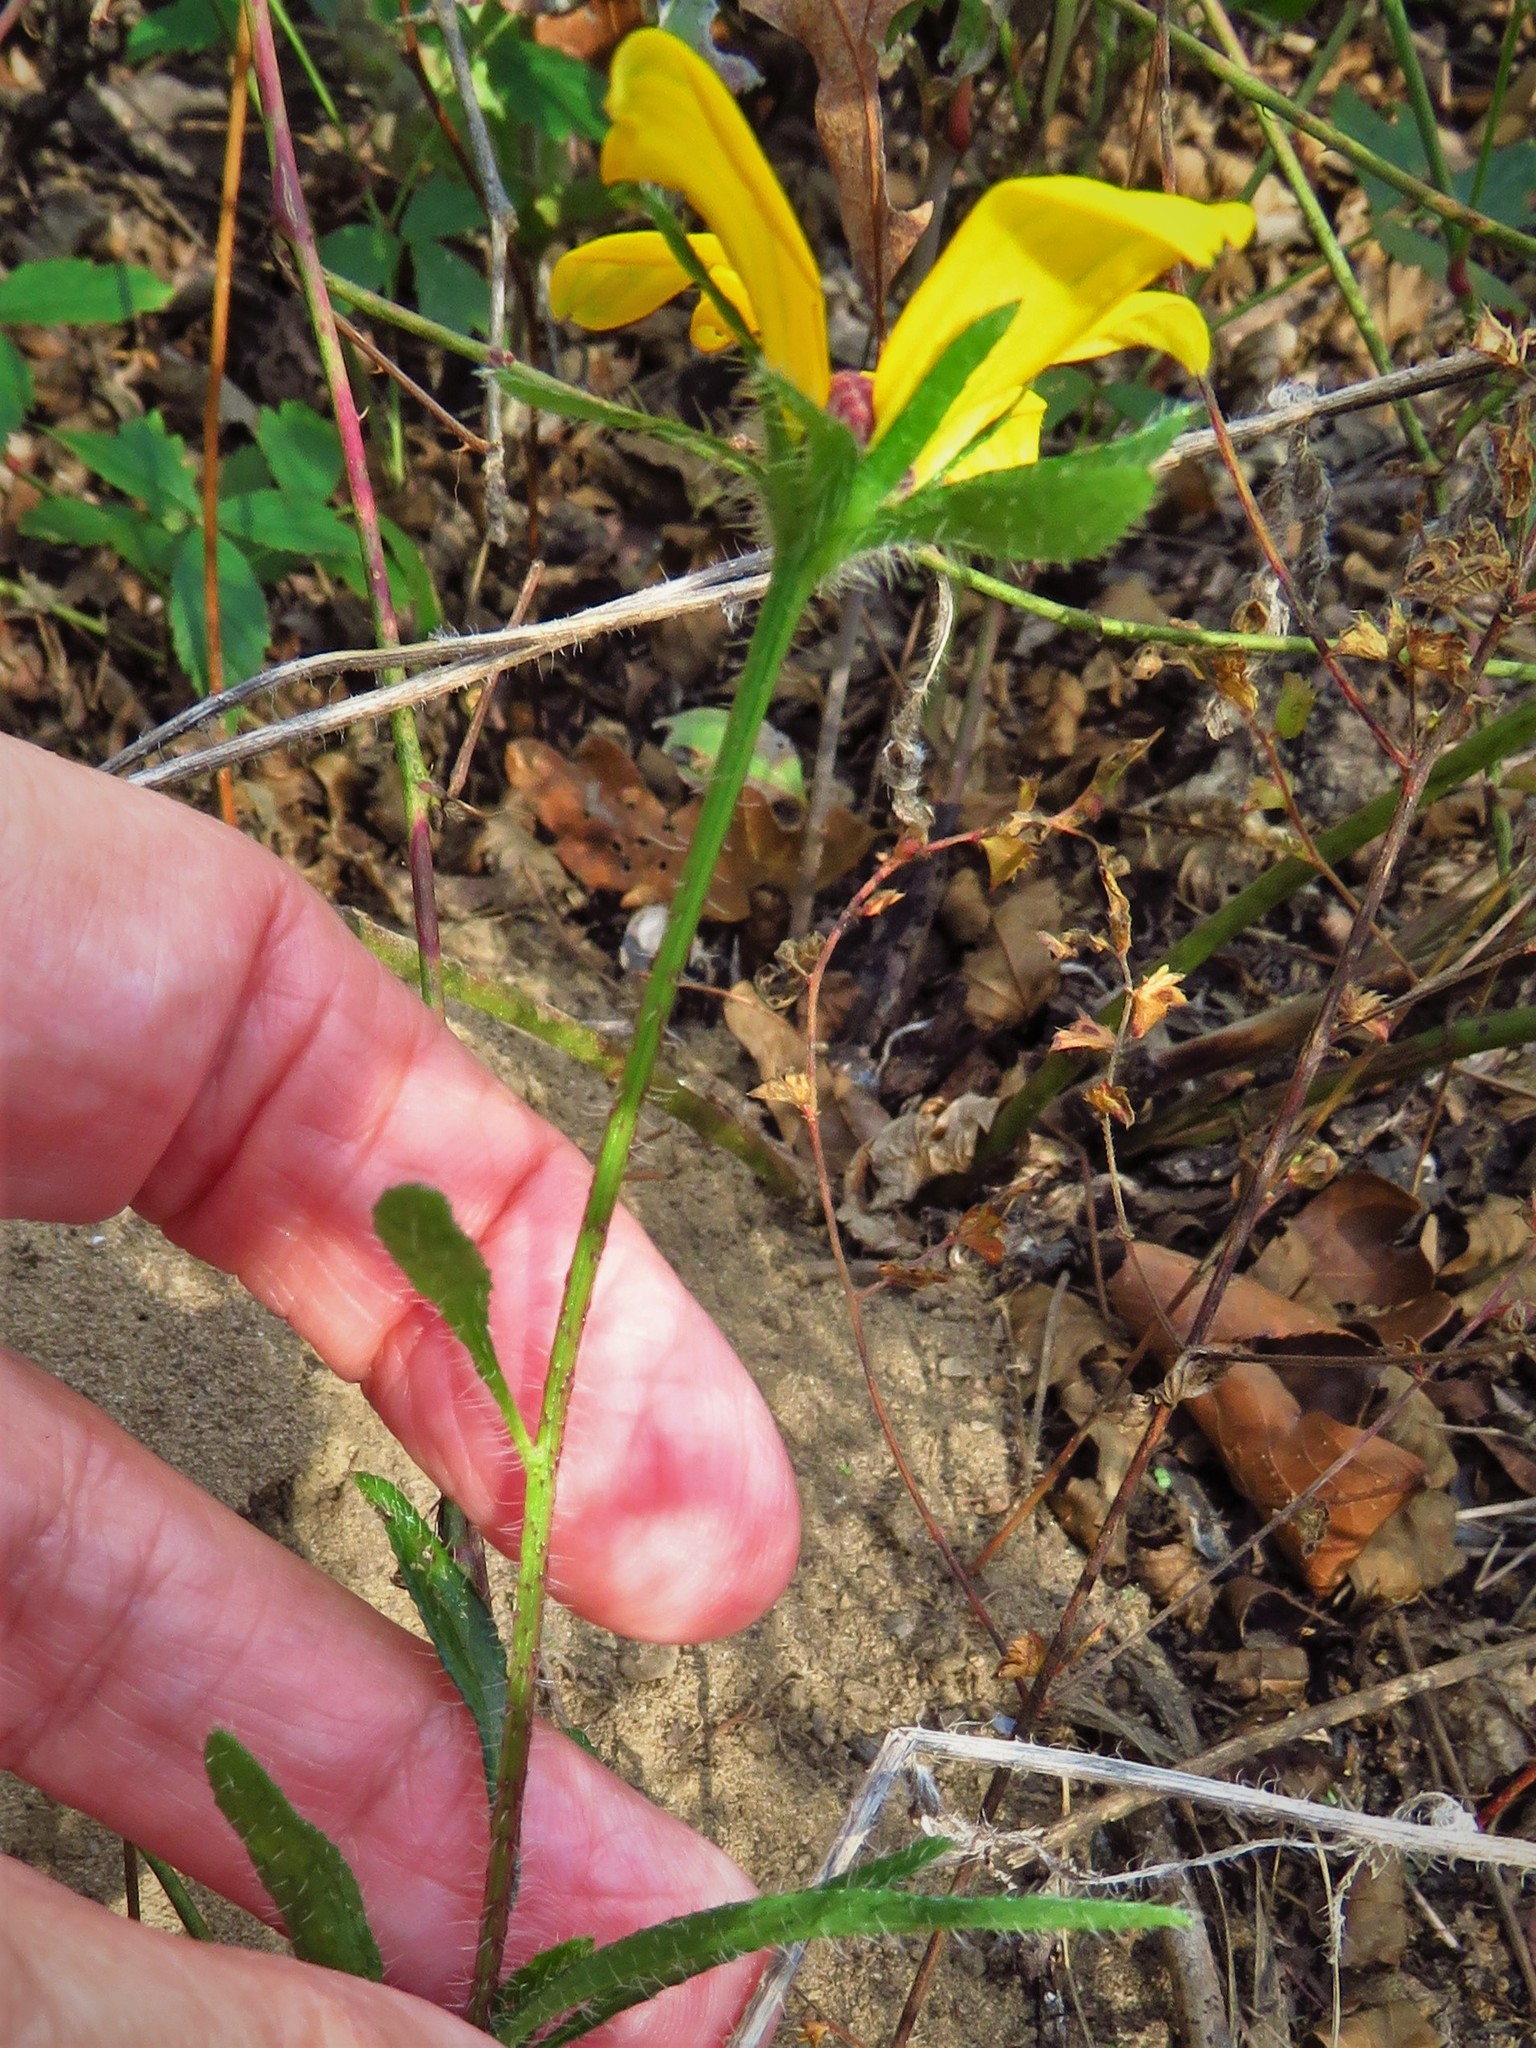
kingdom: Plantae
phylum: Tracheophyta
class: Magnoliopsida
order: Asterales
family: Asteraceae
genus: Rudbeckia
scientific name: Rudbeckia hirta
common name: Black-eyed-susan
